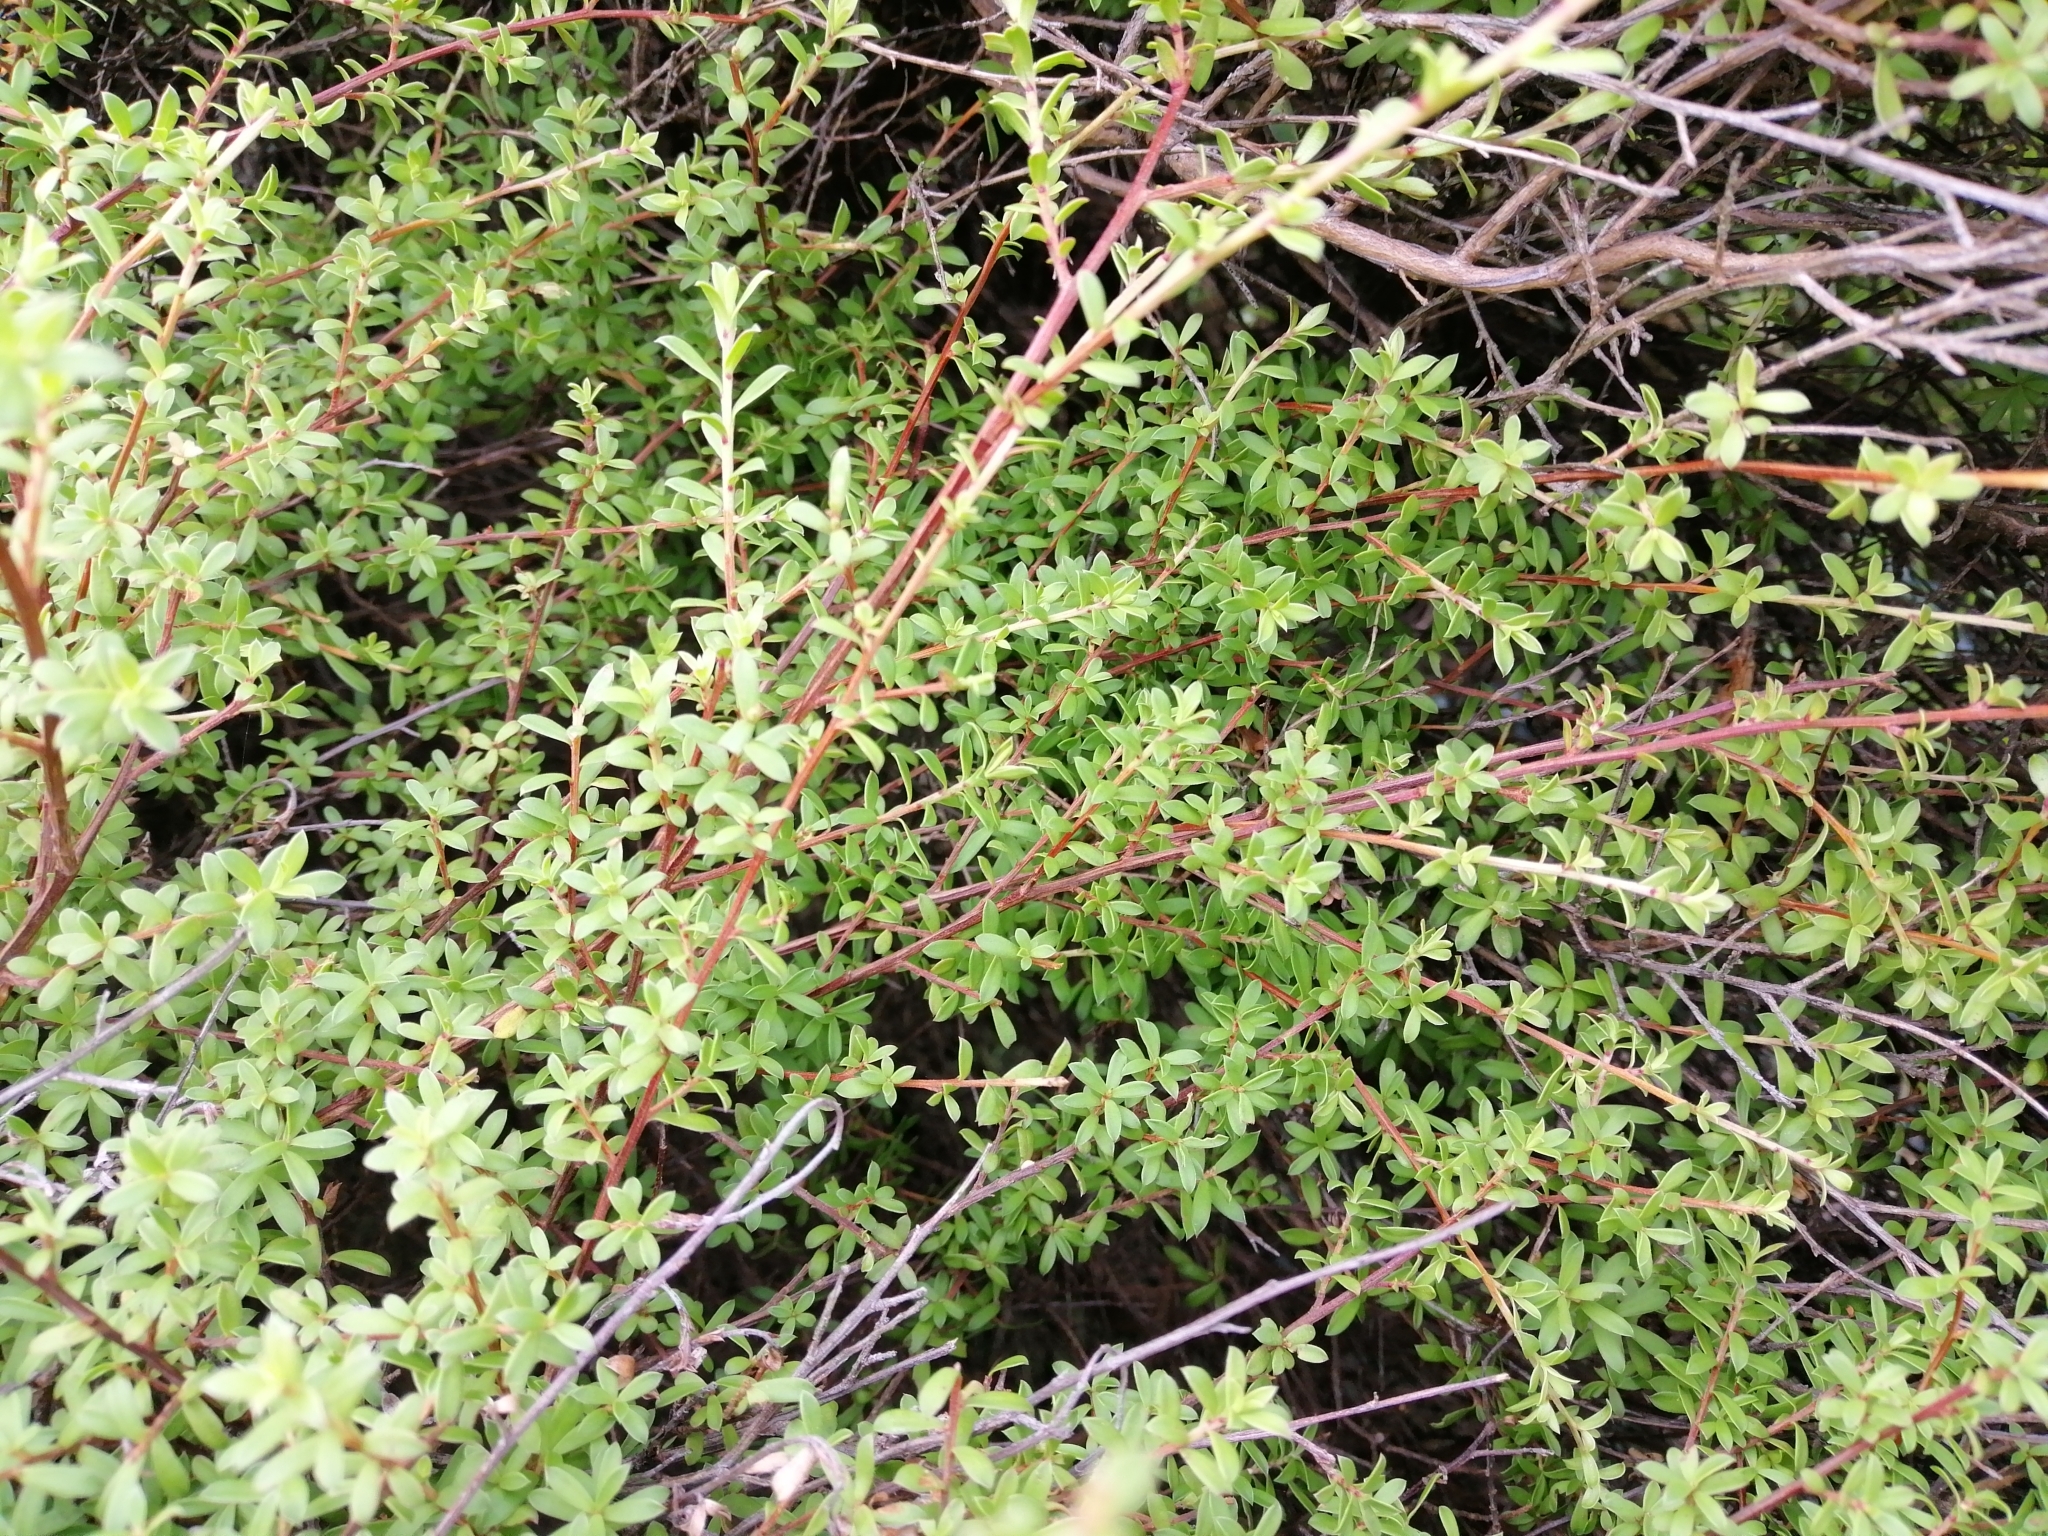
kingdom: Plantae
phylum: Tracheophyta
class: Magnoliopsida
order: Myrtales
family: Myrtaceae
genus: Kunzea
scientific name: Kunzea robusta
